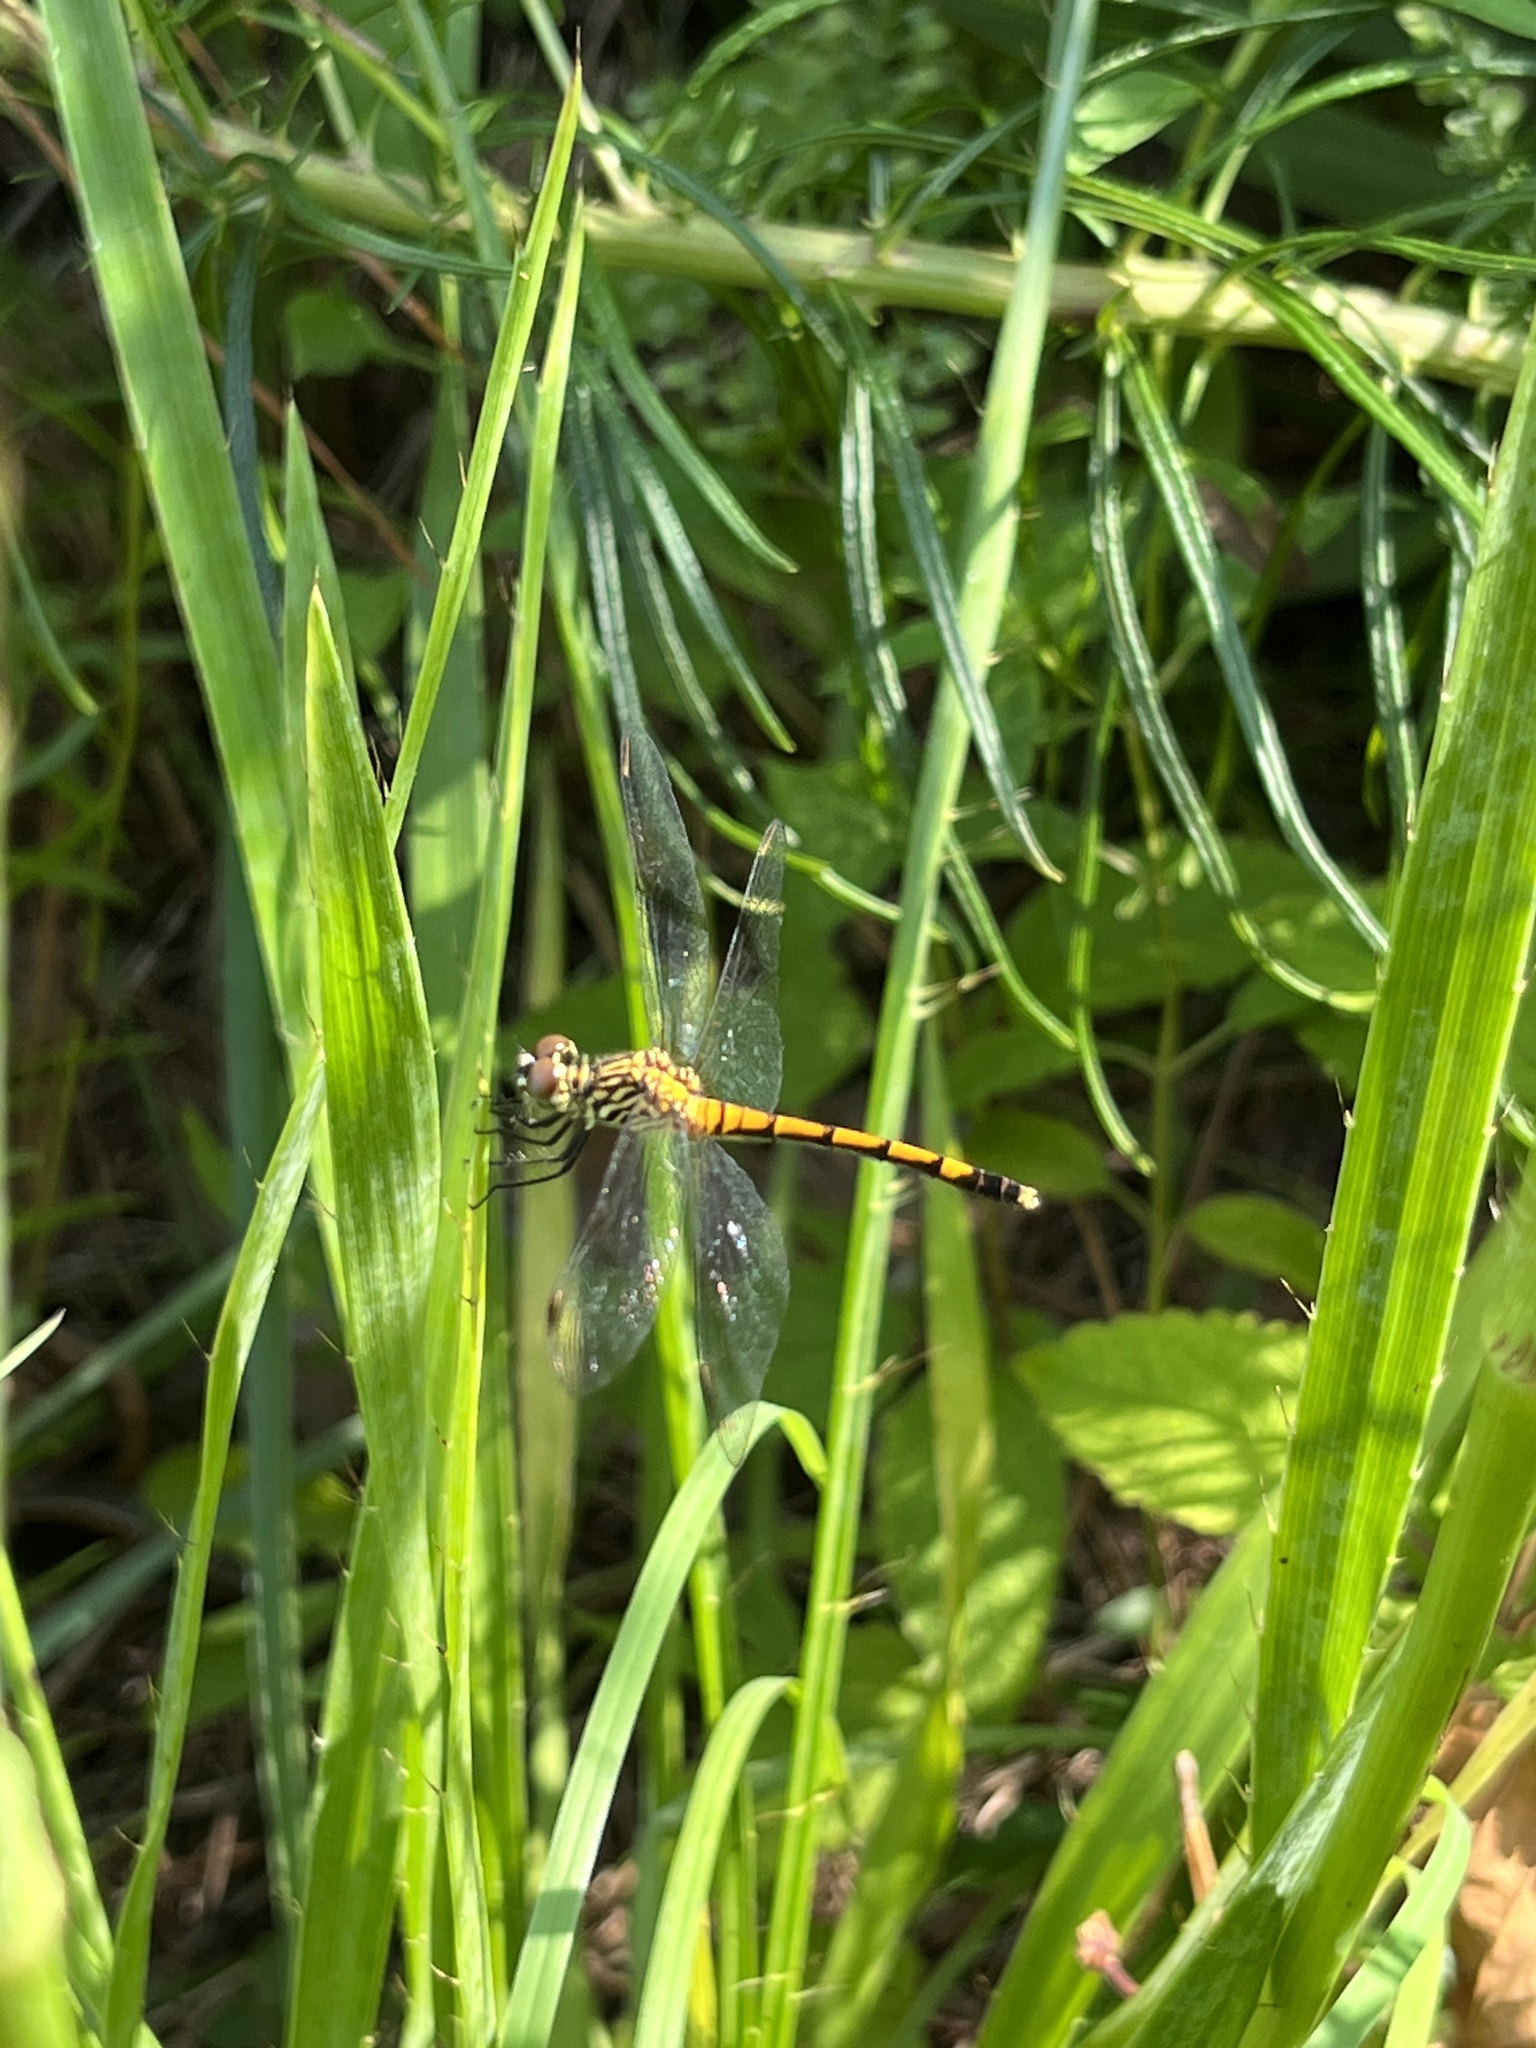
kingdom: Animalia
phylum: Arthropoda
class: Insecta
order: Odonata
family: Libellulidae
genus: Erythrodiplax
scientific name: Erythrodiplax berenice
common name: Seaside dragonlet
